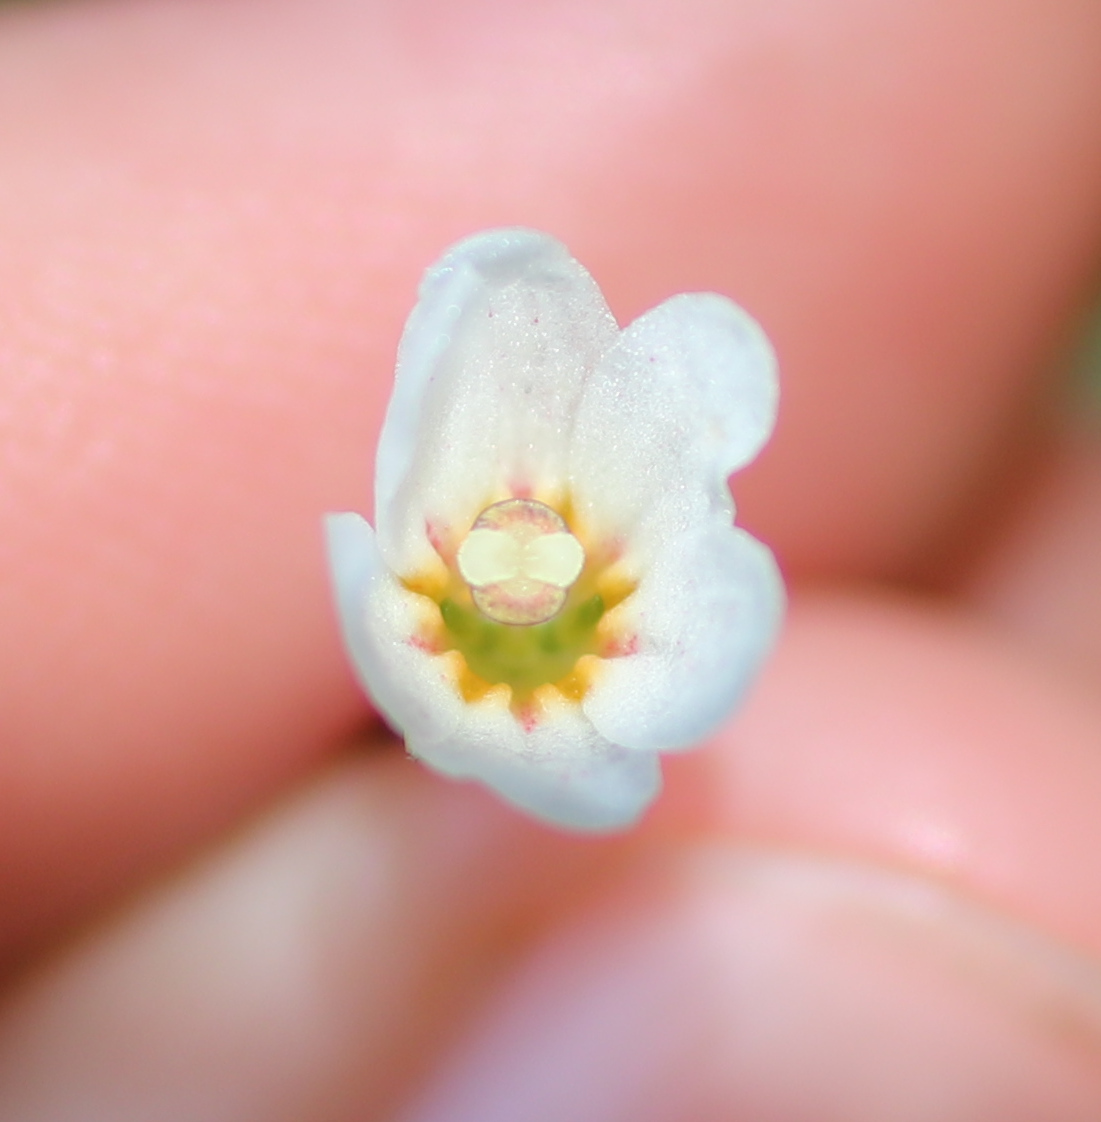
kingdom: Plantae
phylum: Tracheophyta
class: Magnoliopsida
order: Asterales
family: Stylidiaceae
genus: Forstera
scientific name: Forstera tenella
